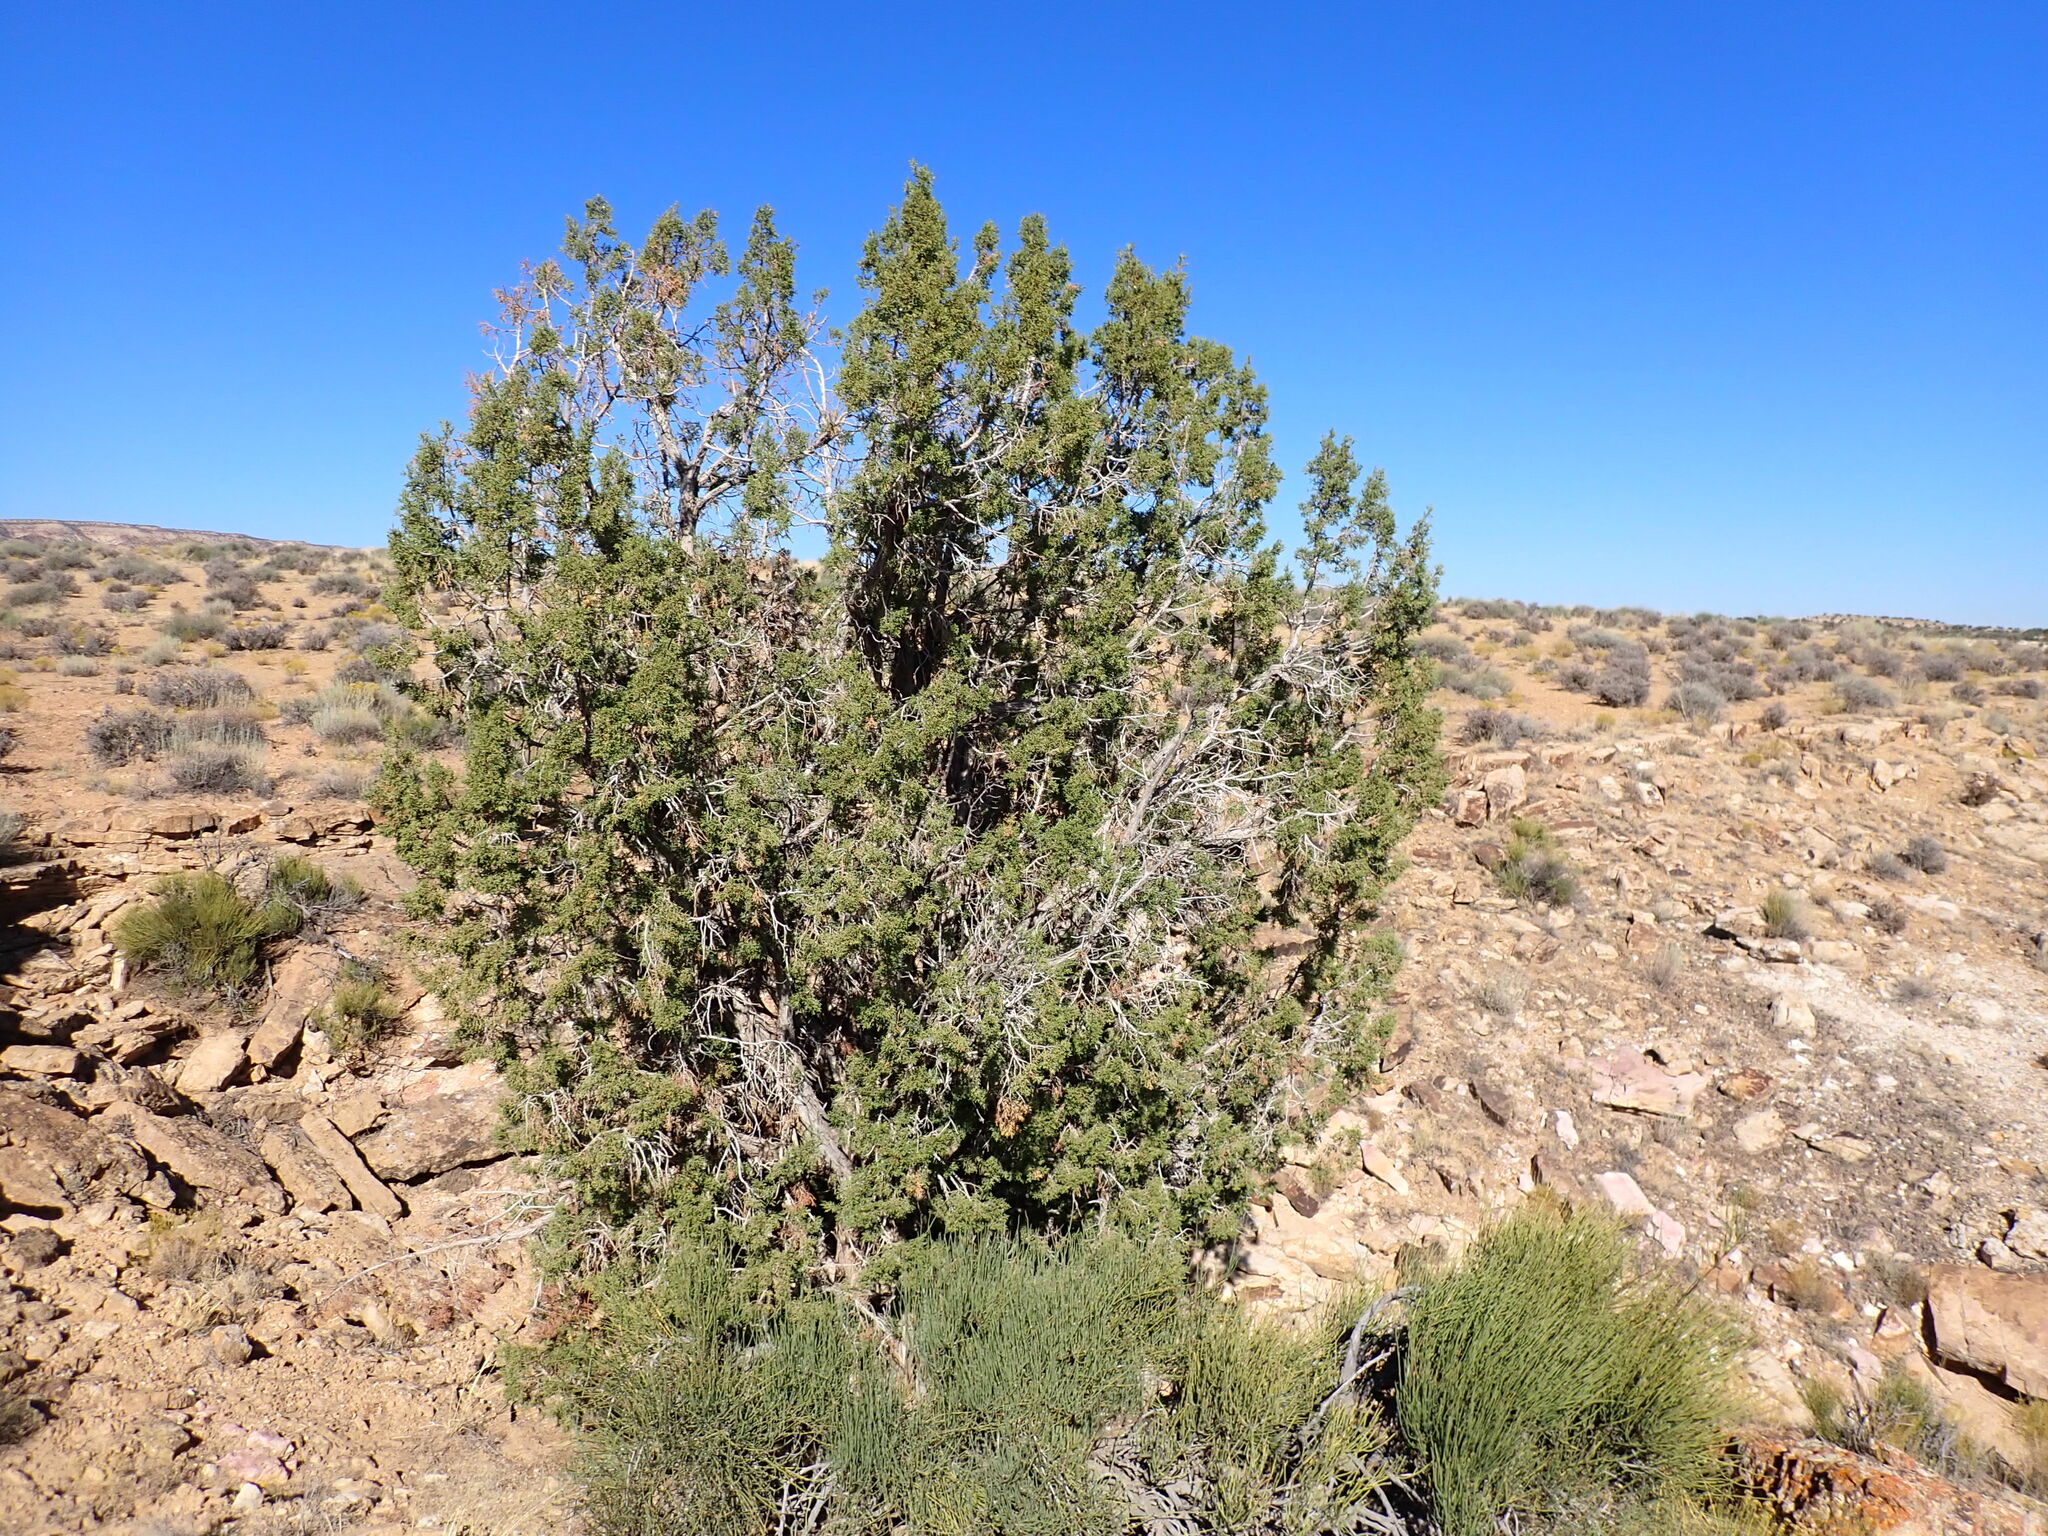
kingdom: Plantae
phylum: Tracheophyta
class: Pinopsida
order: Pinales
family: Cupressaceae
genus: Juniperus
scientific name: Juniperus osteosperma
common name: Utah juniper
